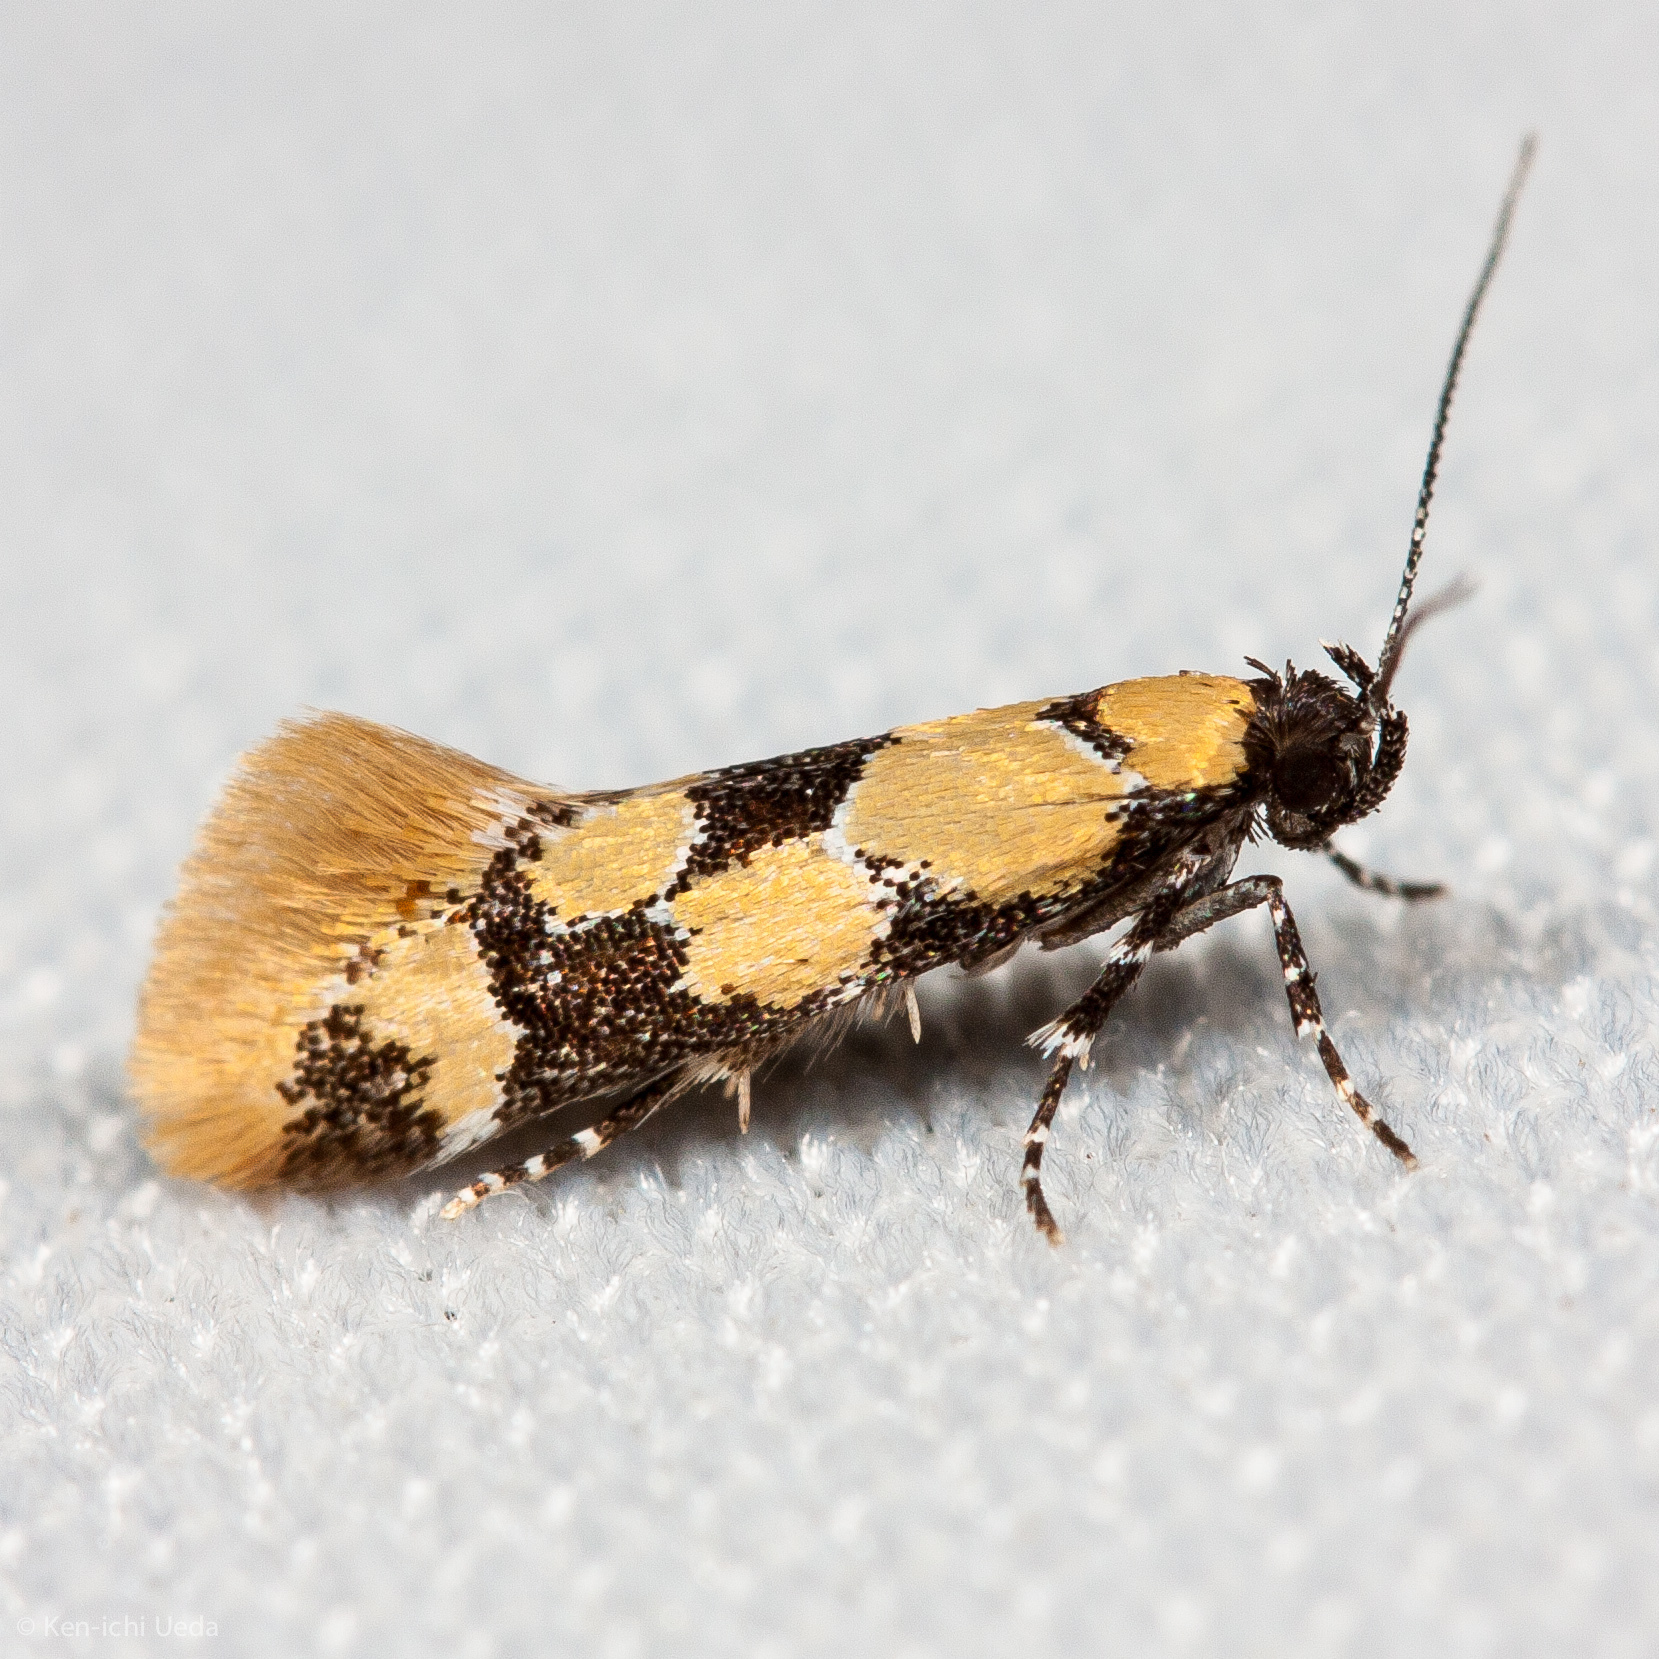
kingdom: Animalia
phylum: Arthropoda
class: Insecta
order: Lepidoptera
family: Oecophoridae
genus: Decantha
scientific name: Decantha stonda
